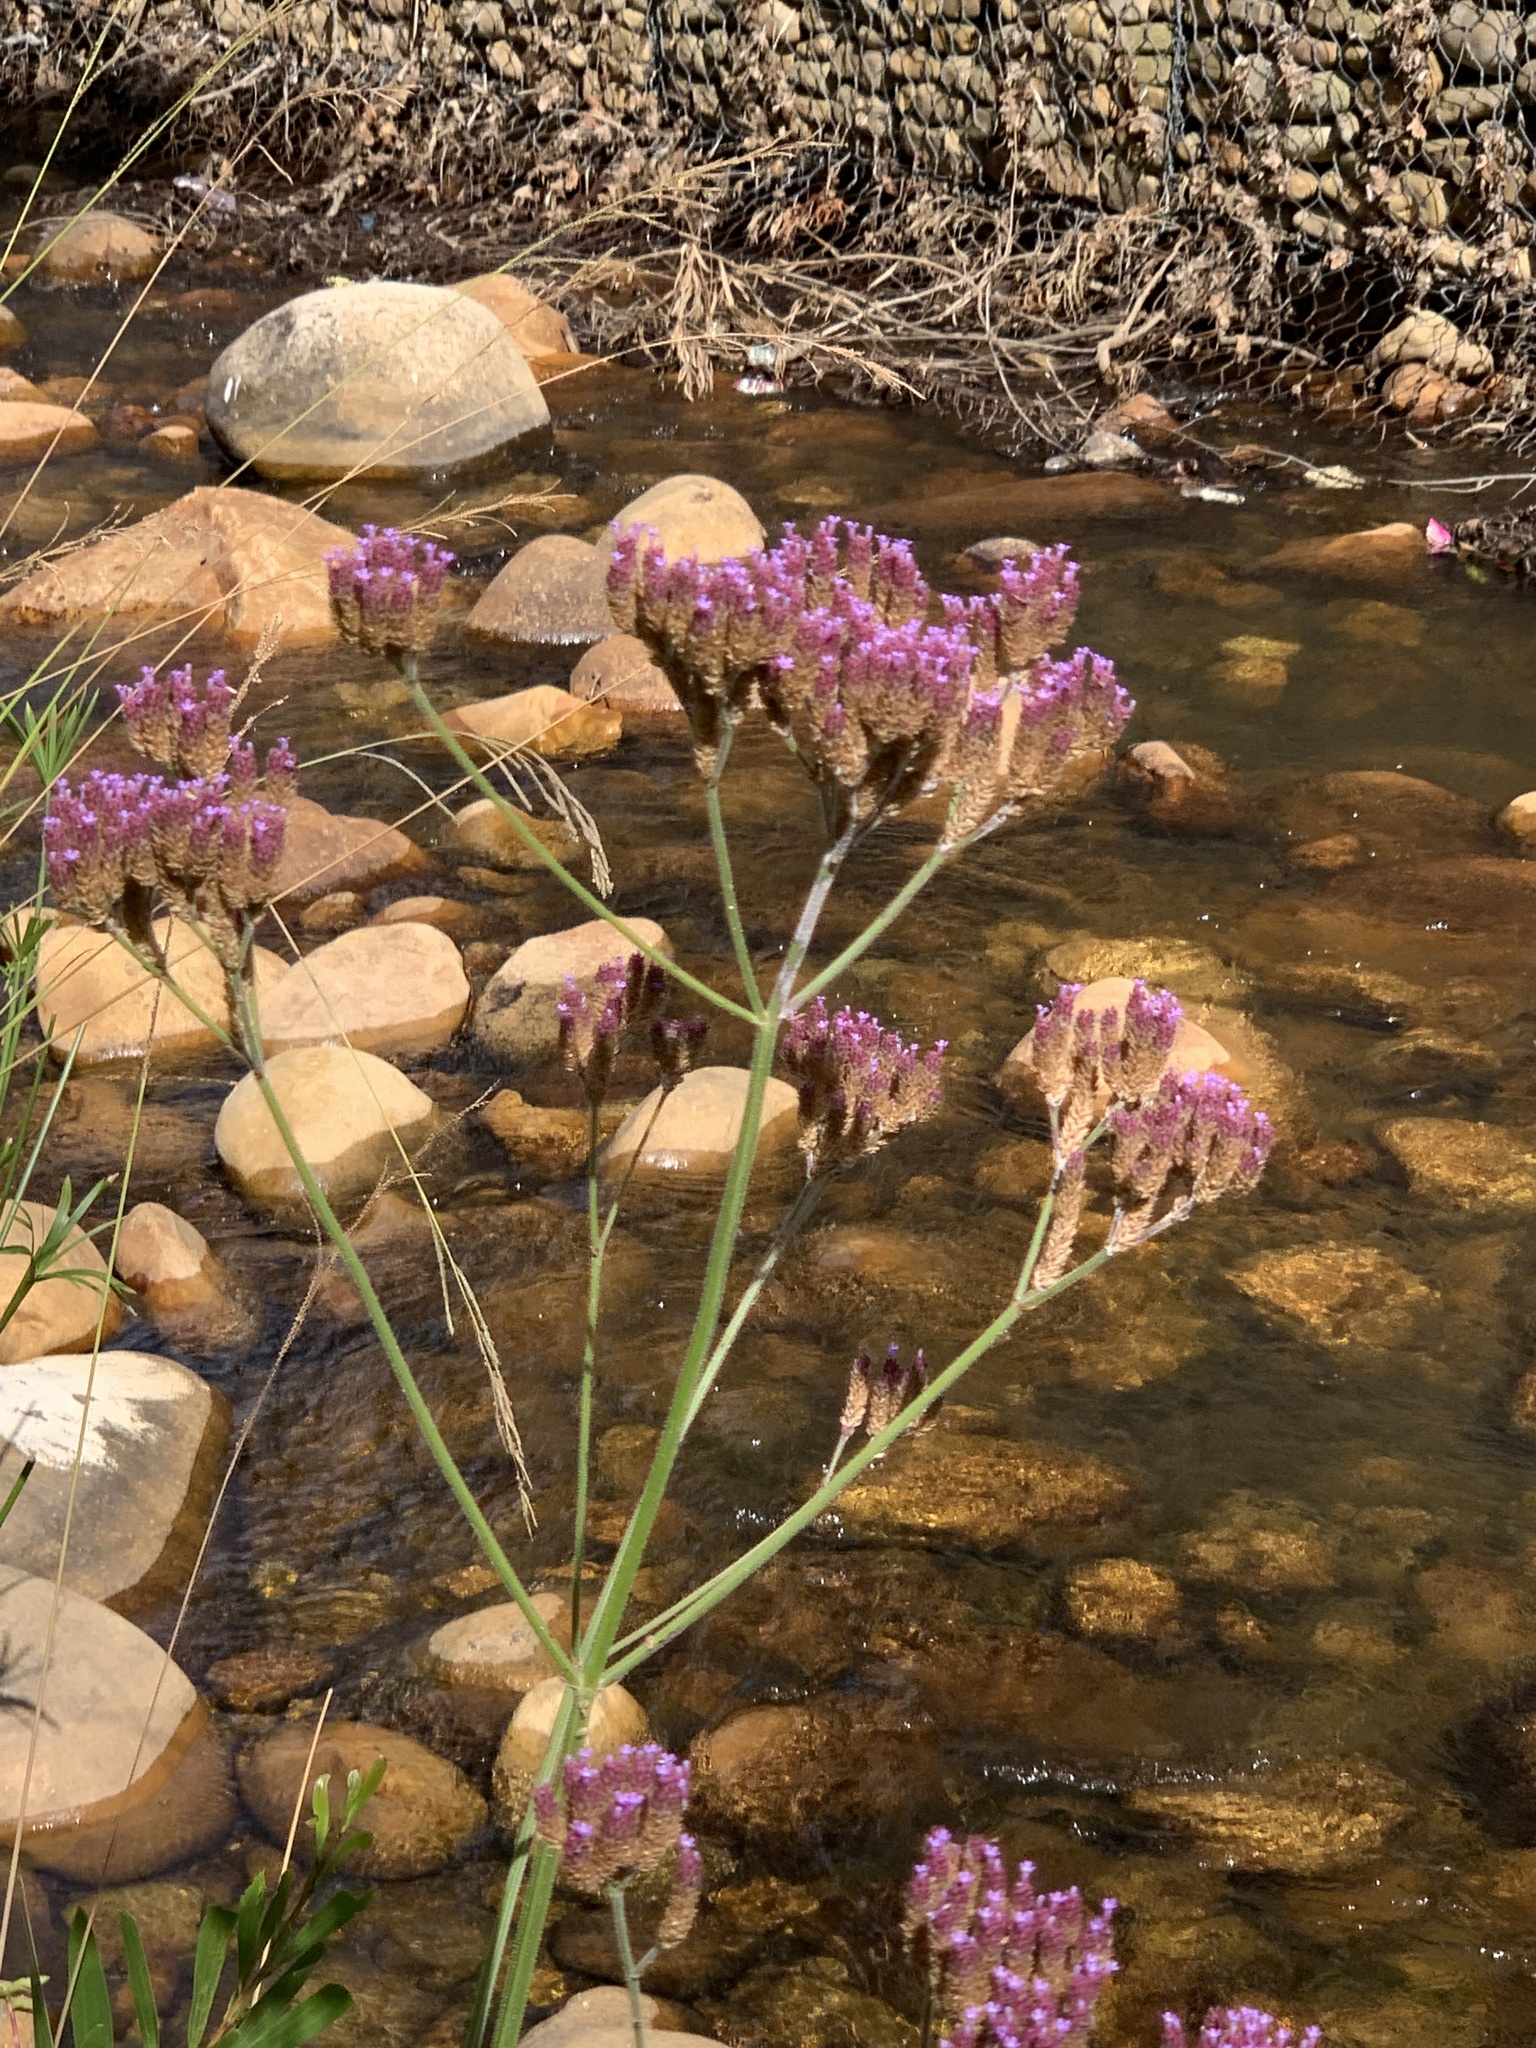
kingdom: Plantae
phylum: Tracheophyta
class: Magnoliopsida
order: Lamiales
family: Verbenaceae
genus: Verbena
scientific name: Verbena bonariensis
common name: Purpletop vervain
